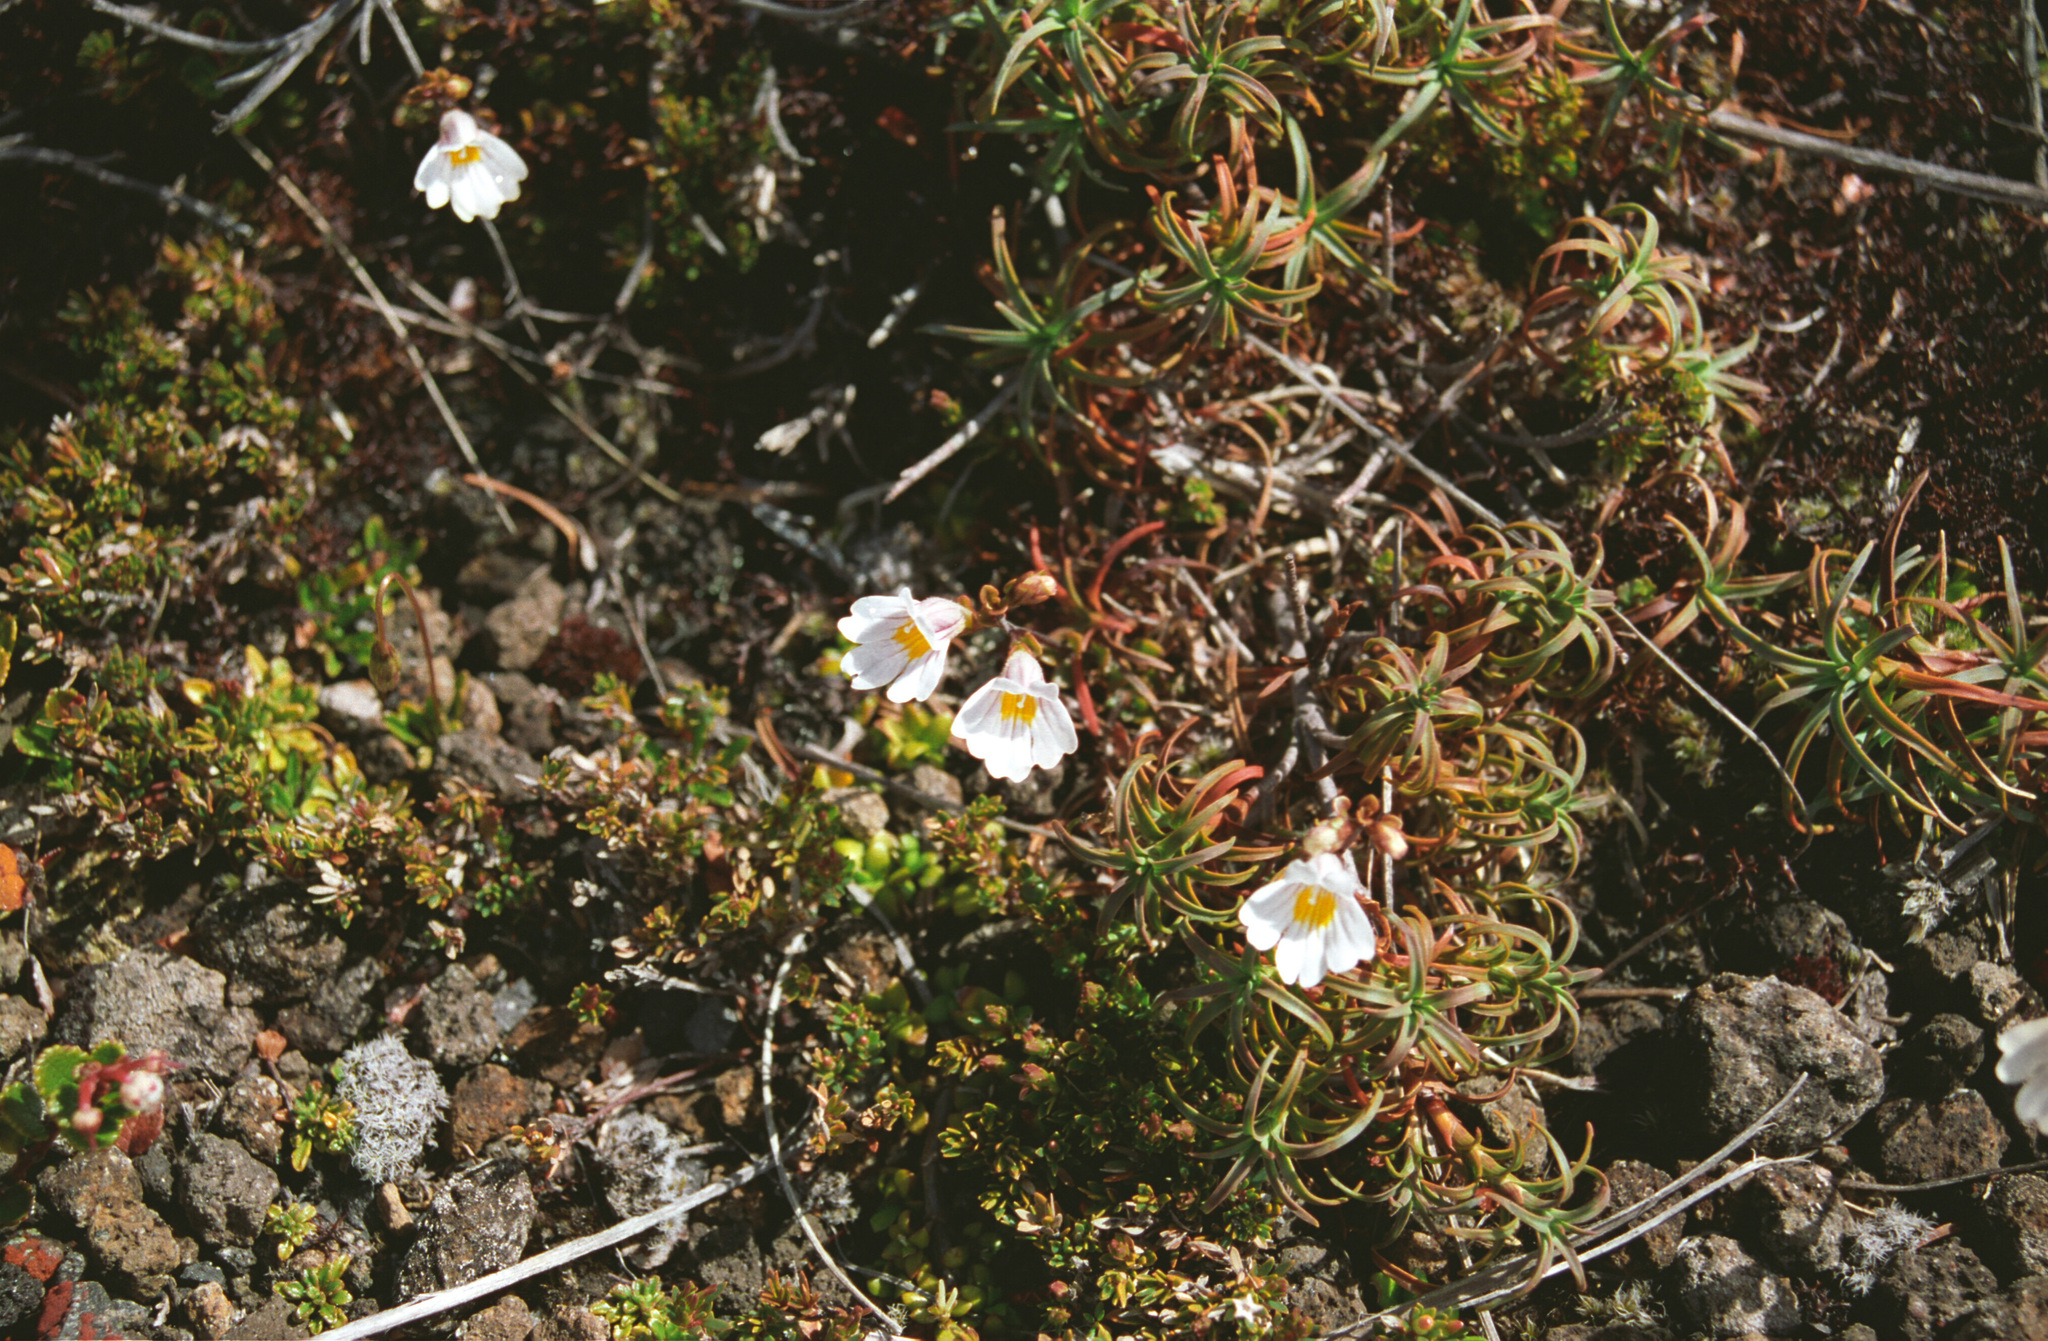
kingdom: Plantae
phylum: Tracheophyta
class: Magnoliopsida
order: Ericales
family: Ericaceae
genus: Dracophyllum
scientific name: Dracophyllum recurvum
